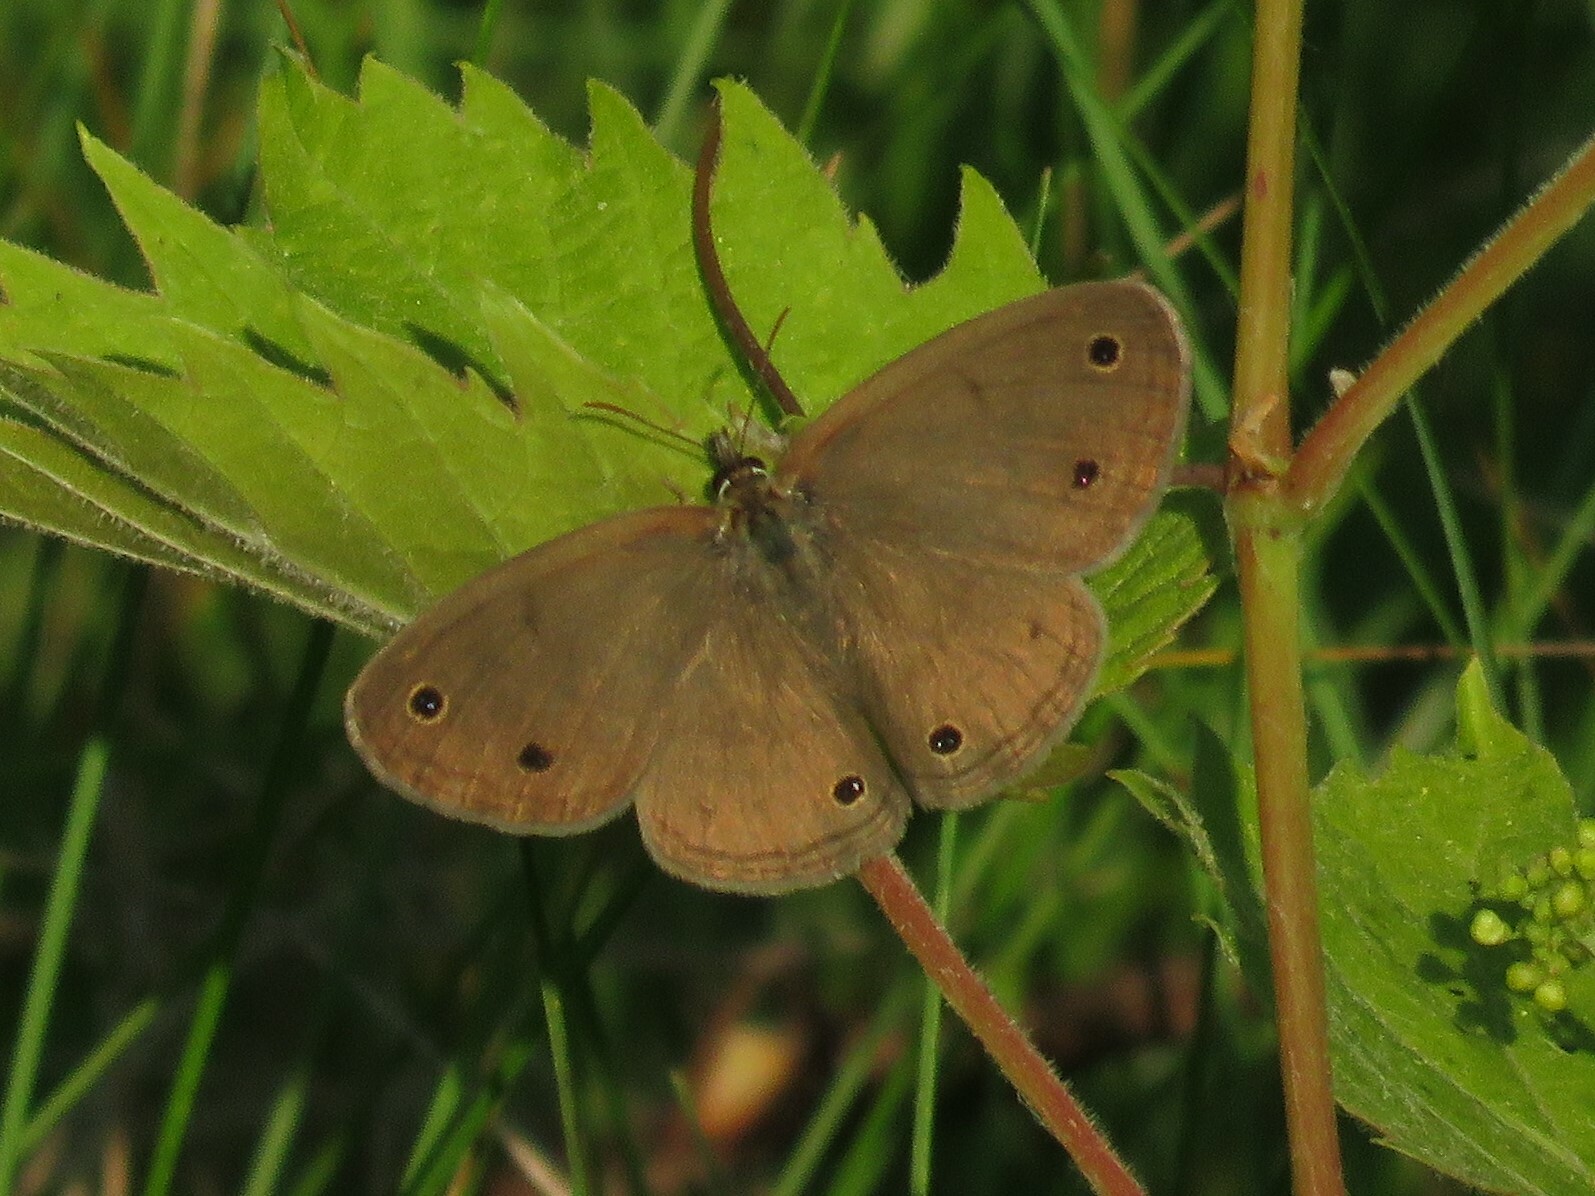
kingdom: Animalia
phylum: Arthropoda
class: Insecta
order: Lepidoptera
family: Nymphalidae
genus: Euptychia
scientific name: Euptychia cymela
